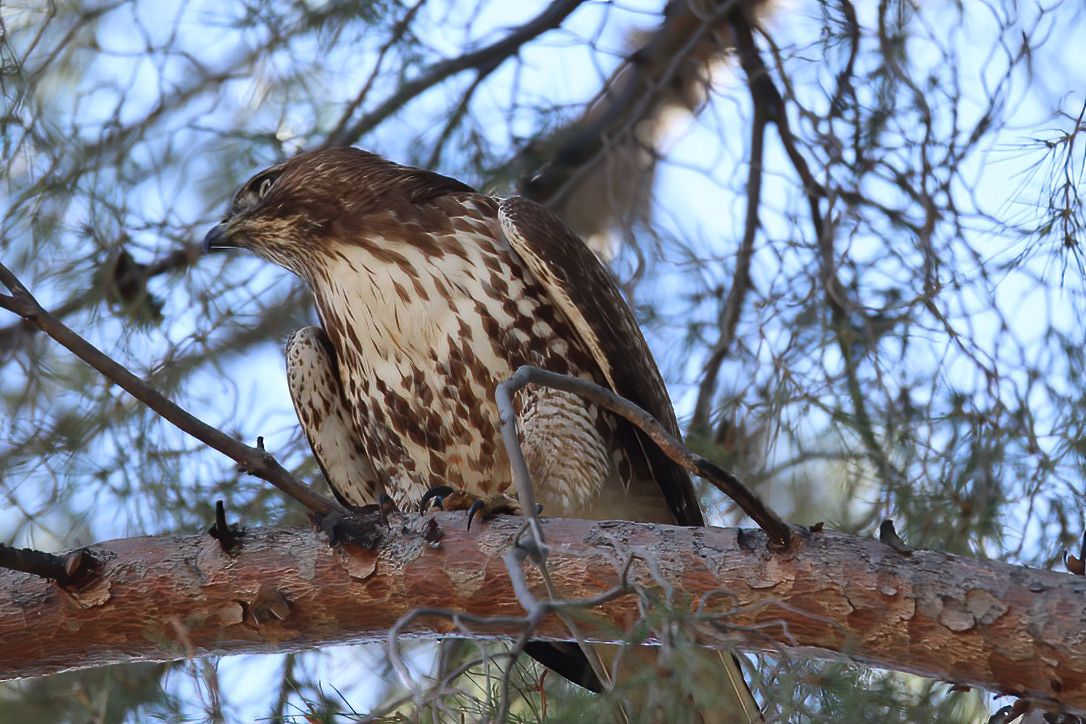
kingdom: Animalia
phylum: Chordata
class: Aves
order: Accipitriformes
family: Accipitridae
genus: Buteo
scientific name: Buteo jamaicensis
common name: Red-tailed hawk
